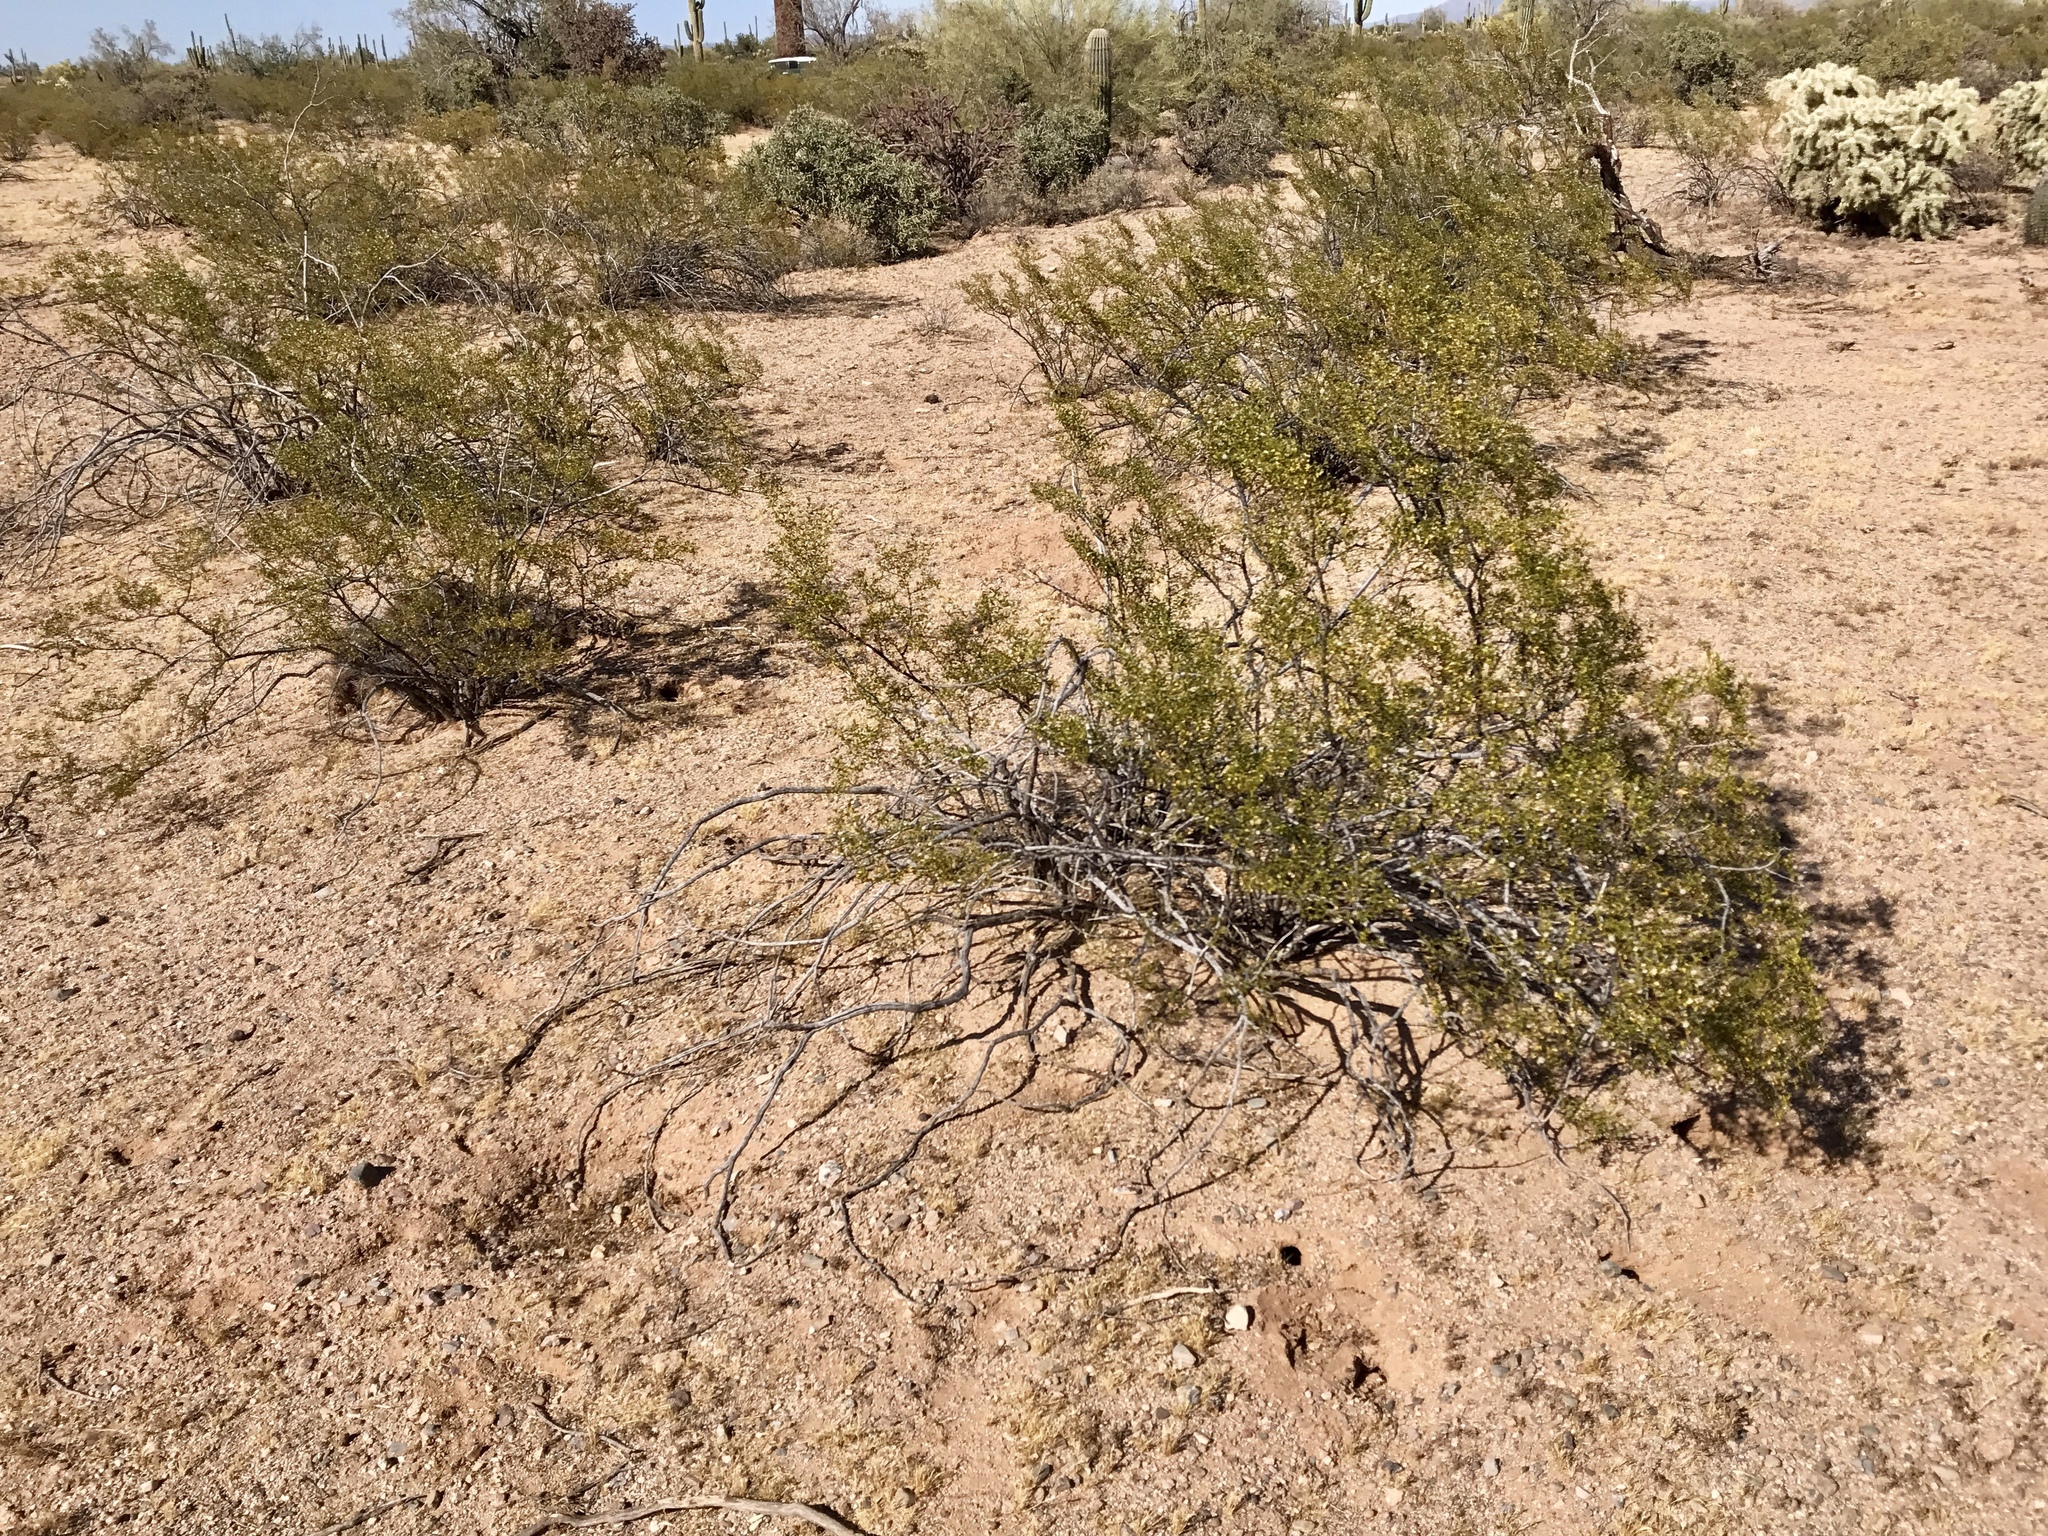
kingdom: Plantae
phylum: Tracheophyta
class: Magnoliopsida
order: Zygophyllales
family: Zygophyllaceae
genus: Larrea
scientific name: Larrea tridentata
